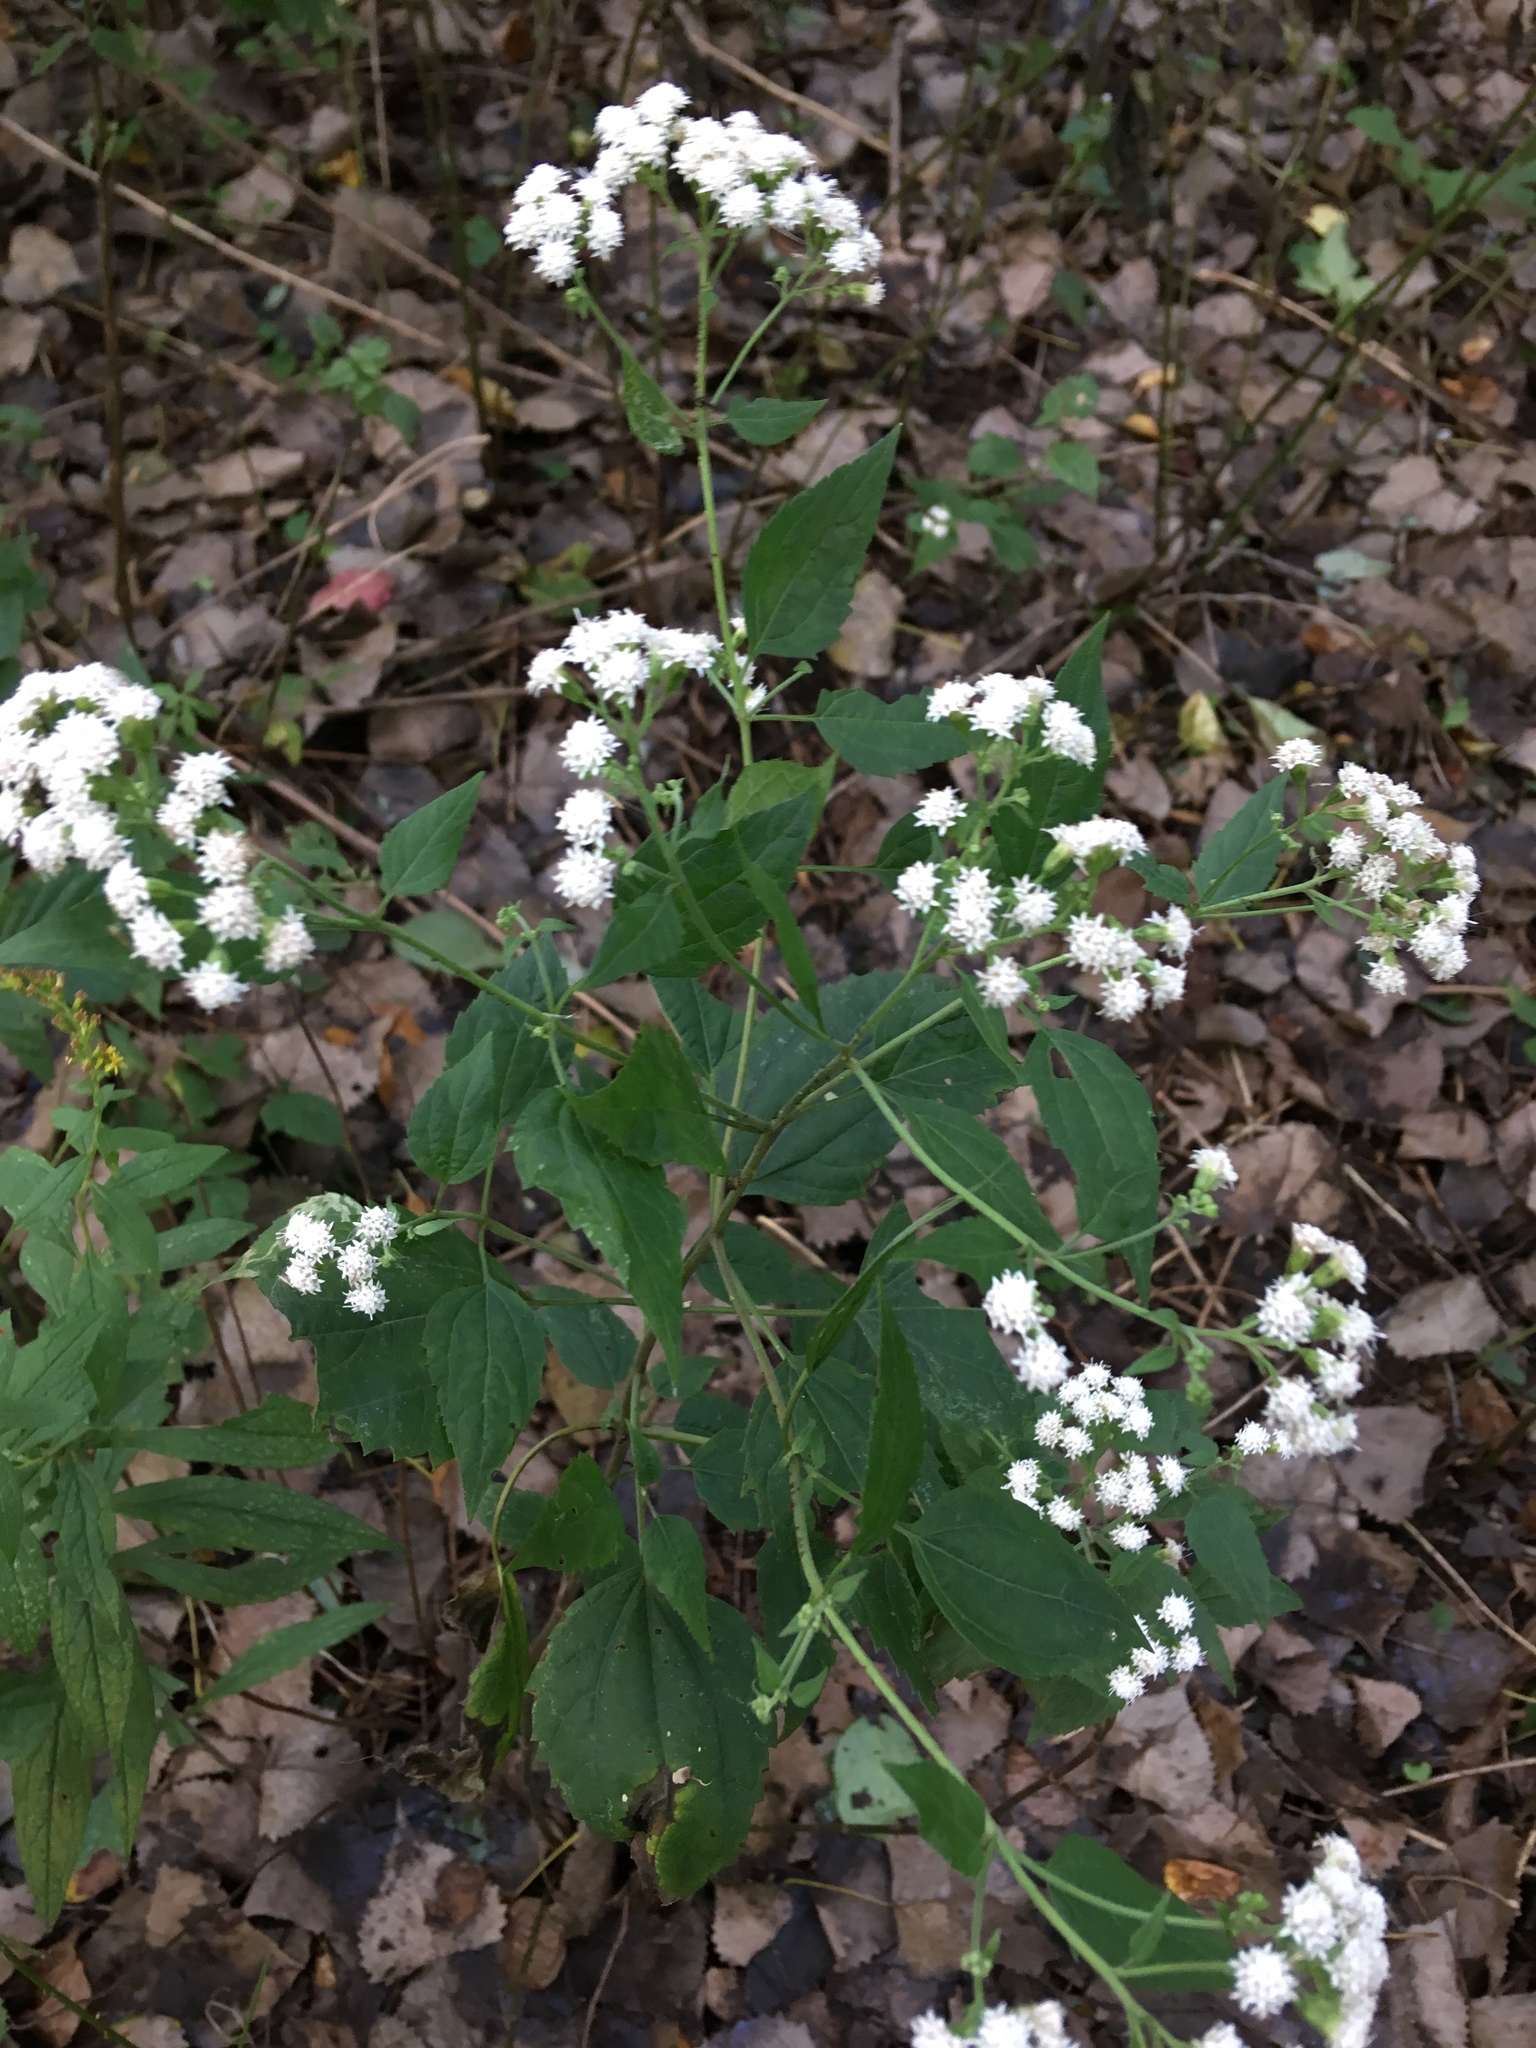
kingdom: Plantae
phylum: Tracheophyta
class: Magnoliopsida
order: Asterales
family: Asteraceae
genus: Ageratina
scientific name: Ageratina altissima
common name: White snakeroot
